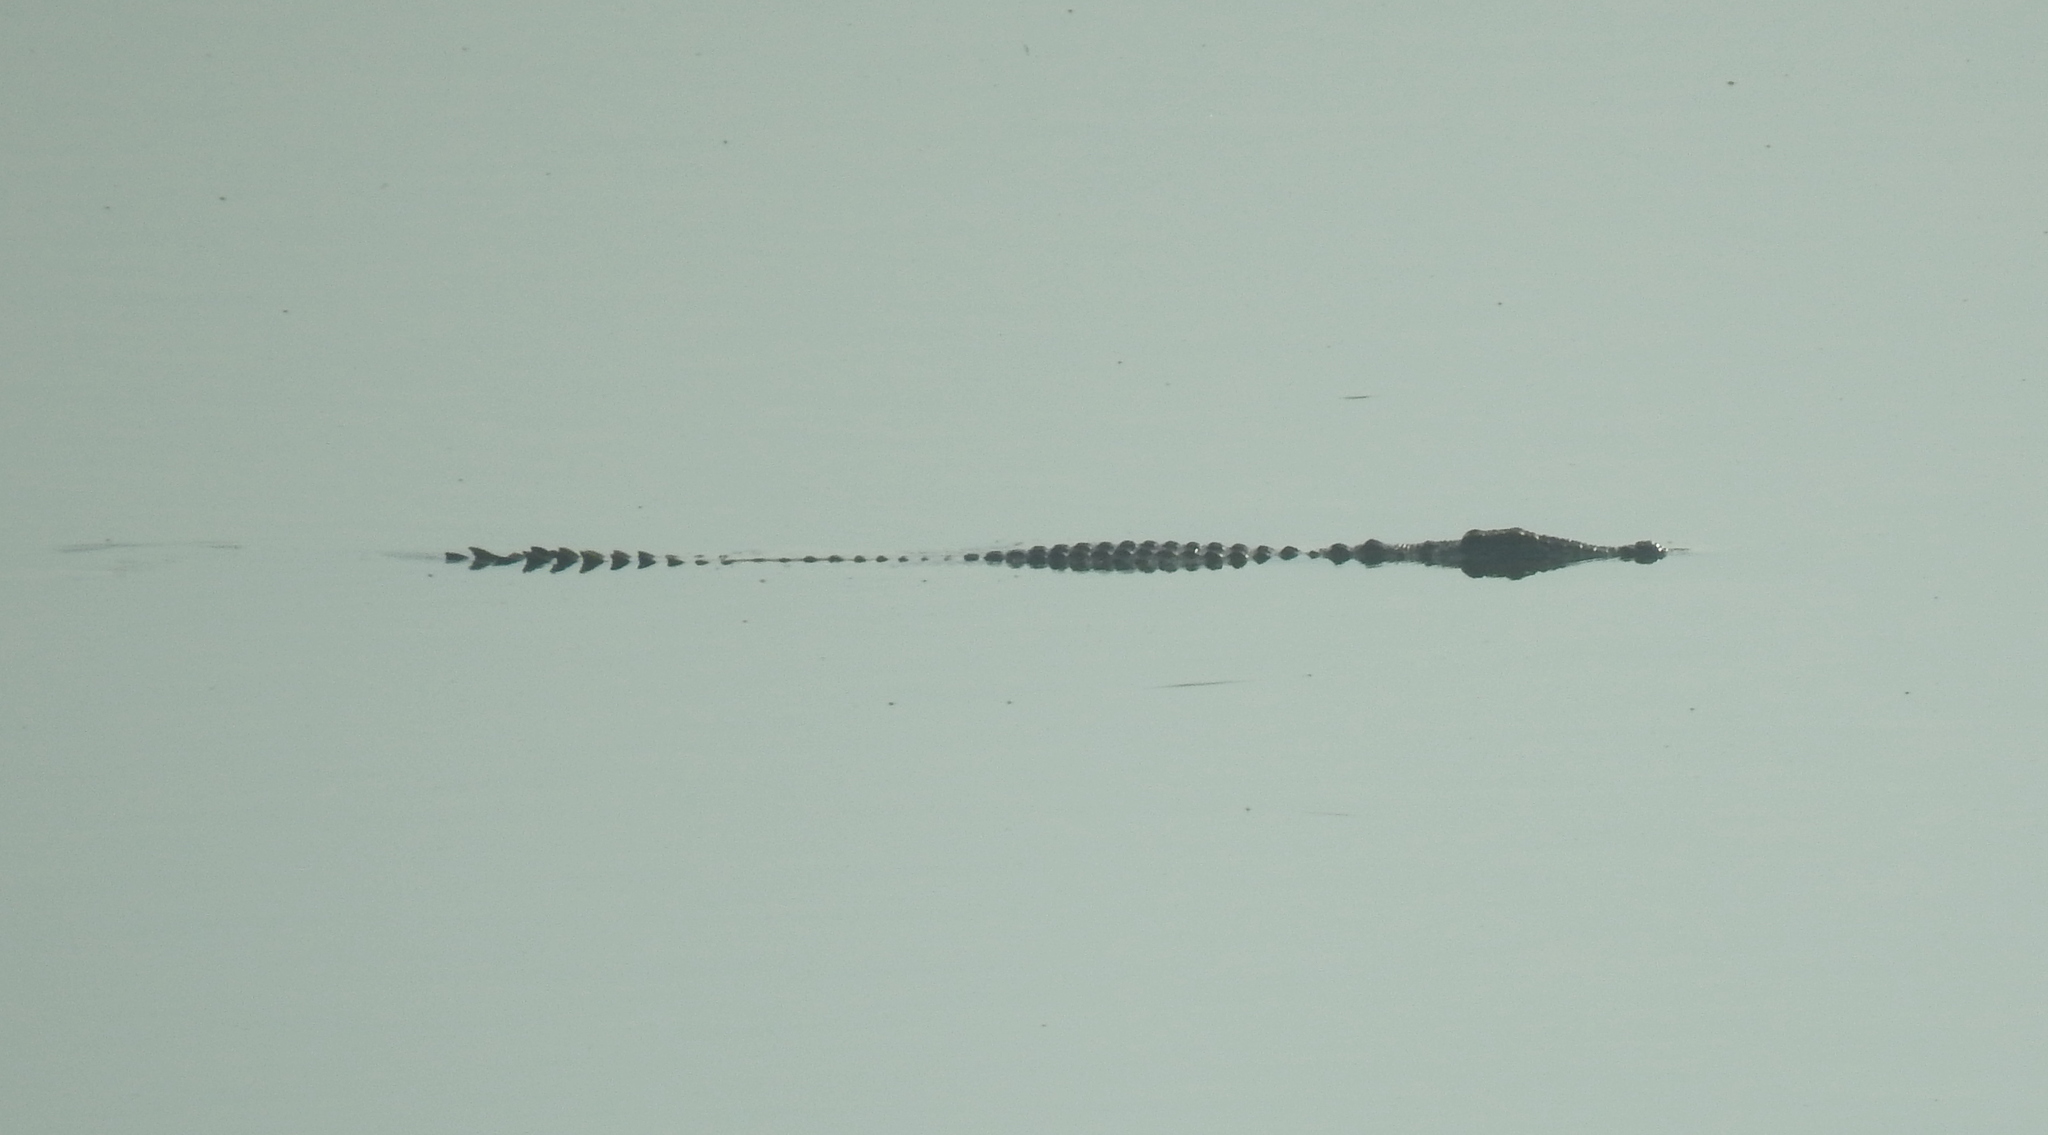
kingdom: Animalia
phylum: Chordata
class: Crocodylia
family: Crocodylidae
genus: Crocodylus
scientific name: Crocodylus niloticus
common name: Nile crocodile
